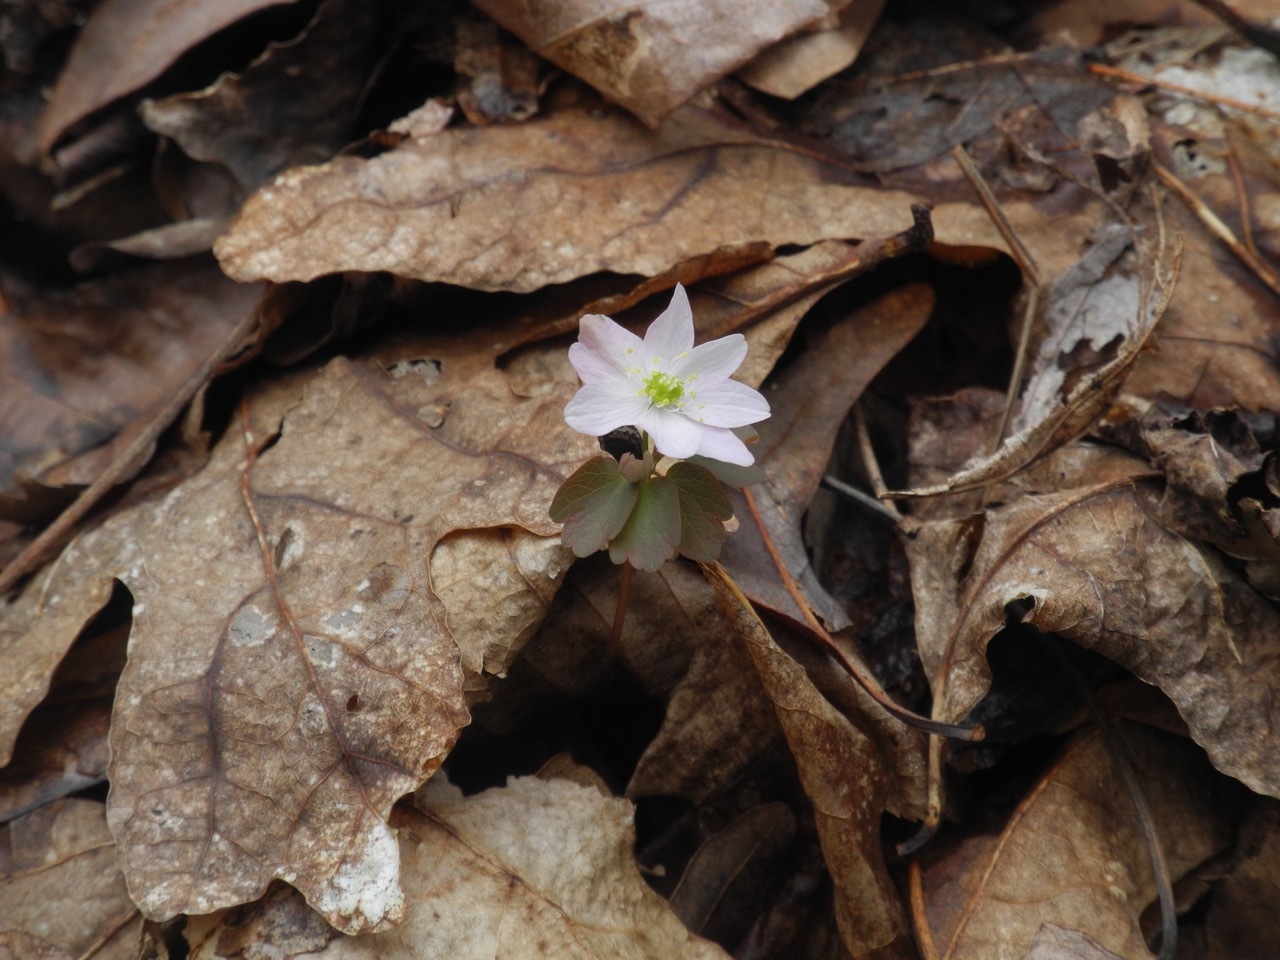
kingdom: Plantae
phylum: Tracheophyta
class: Magnoliopsida
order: Ranunculales
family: Ranunculaceae
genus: Thalictrum
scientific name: Thalictrum thalictroides
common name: Rue-anemone
